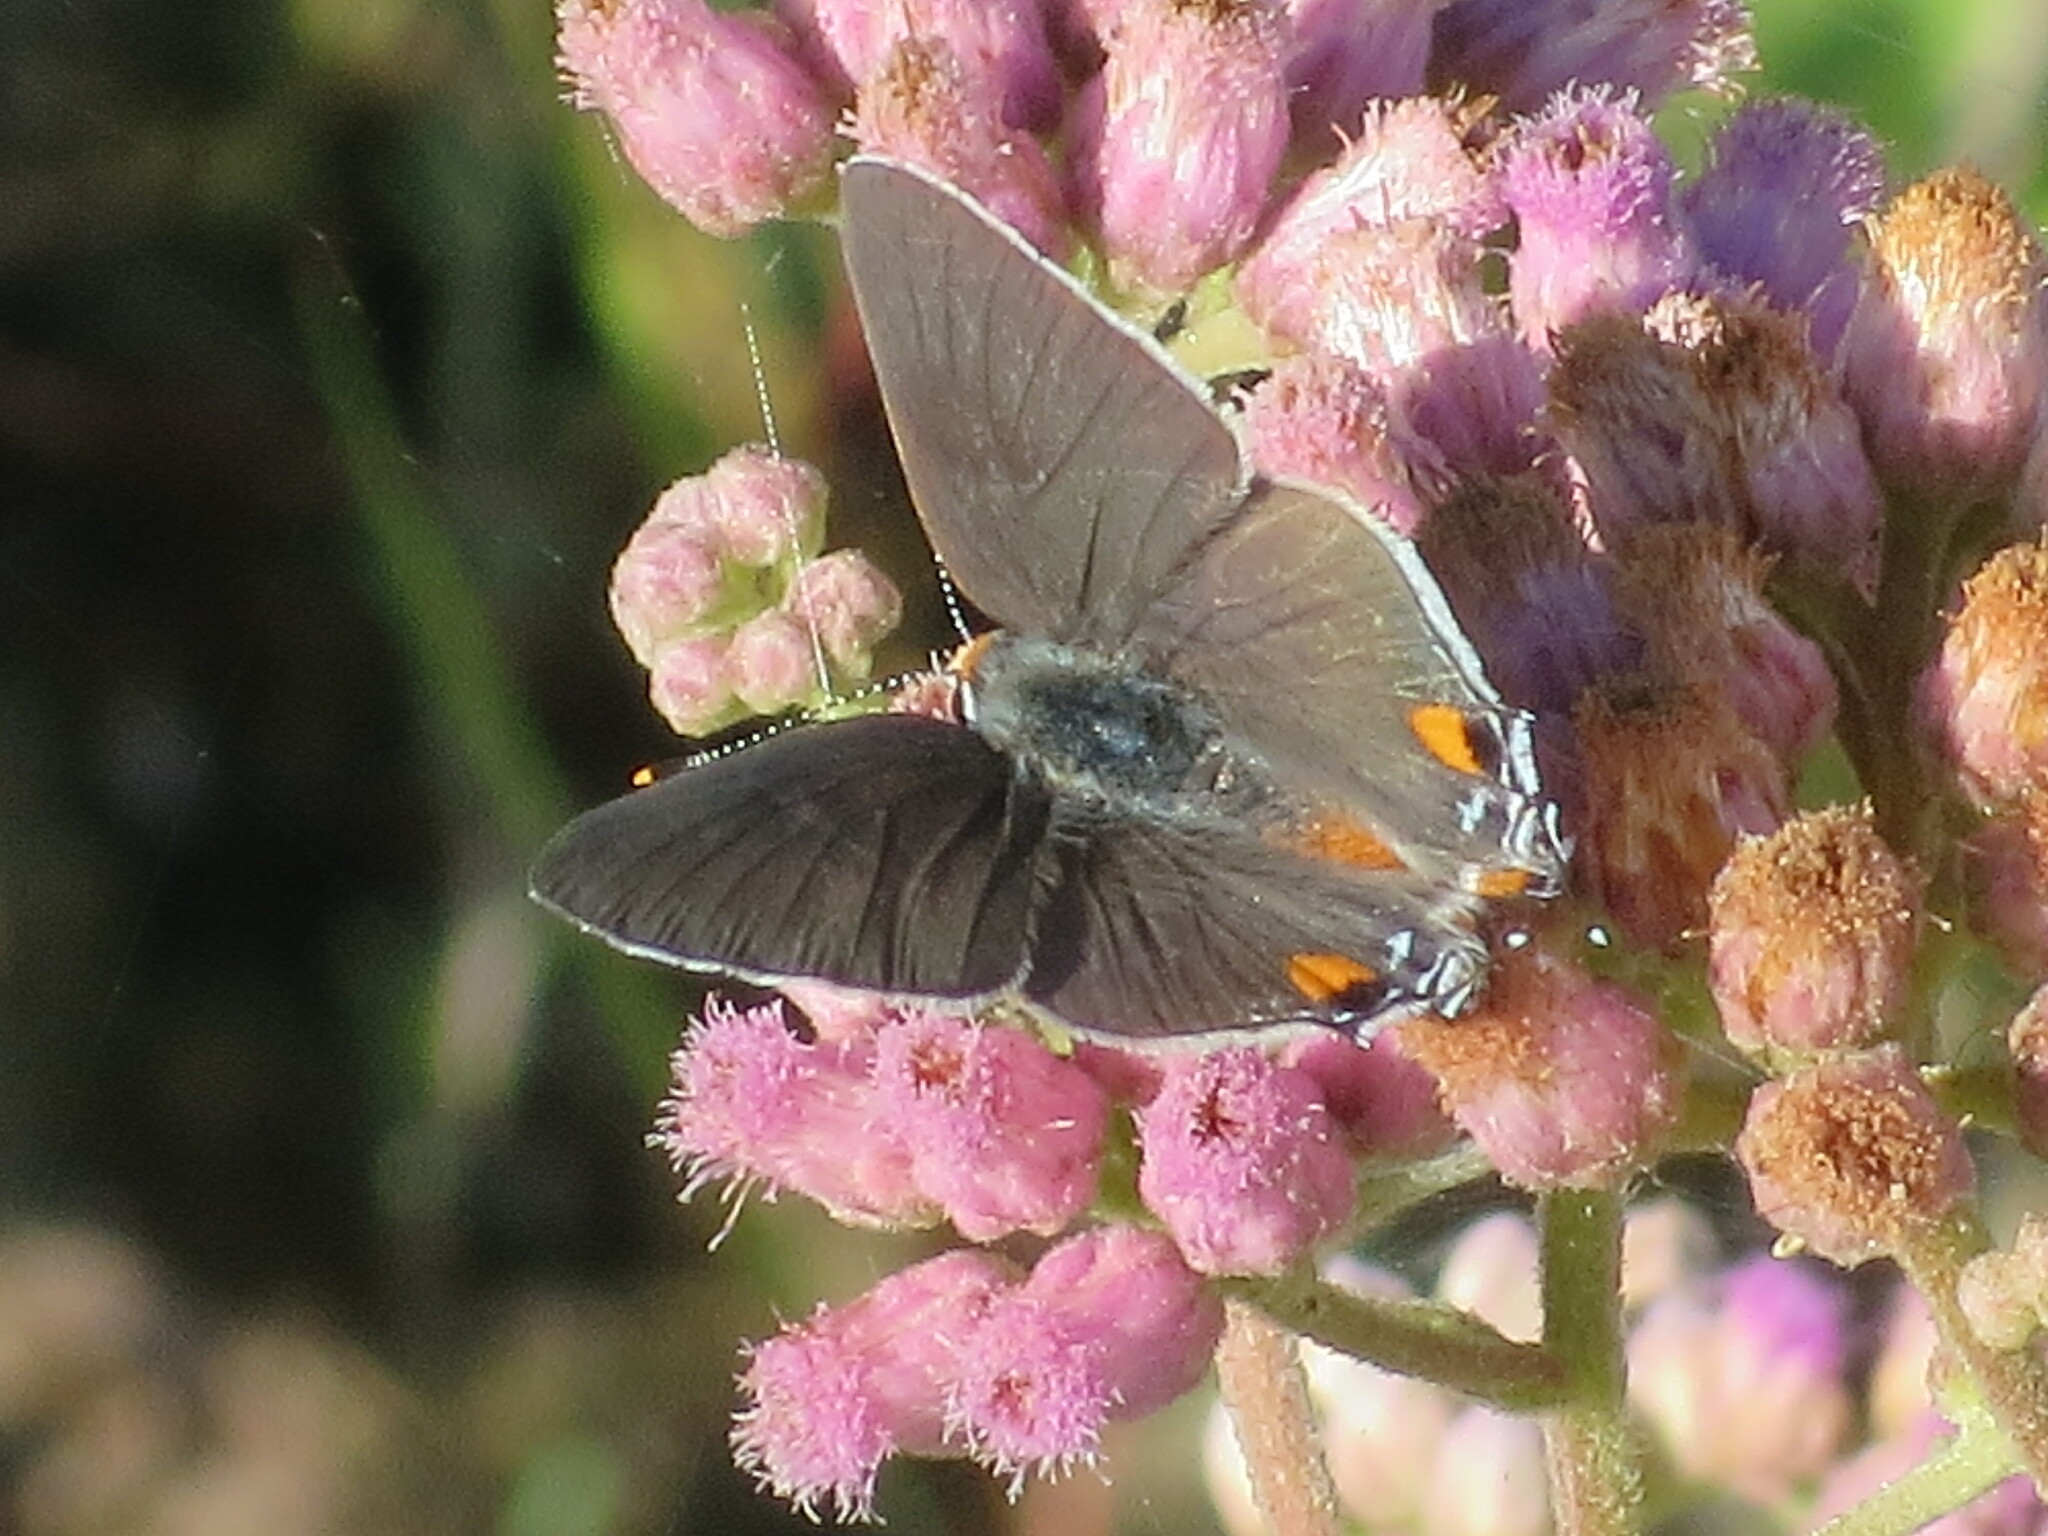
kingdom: Animalia
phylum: Arthropoda
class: Insecta
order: Lepidoptera
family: Lycaenidae
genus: Strymon
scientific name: Strymon melinus
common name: Gray hairstreak
